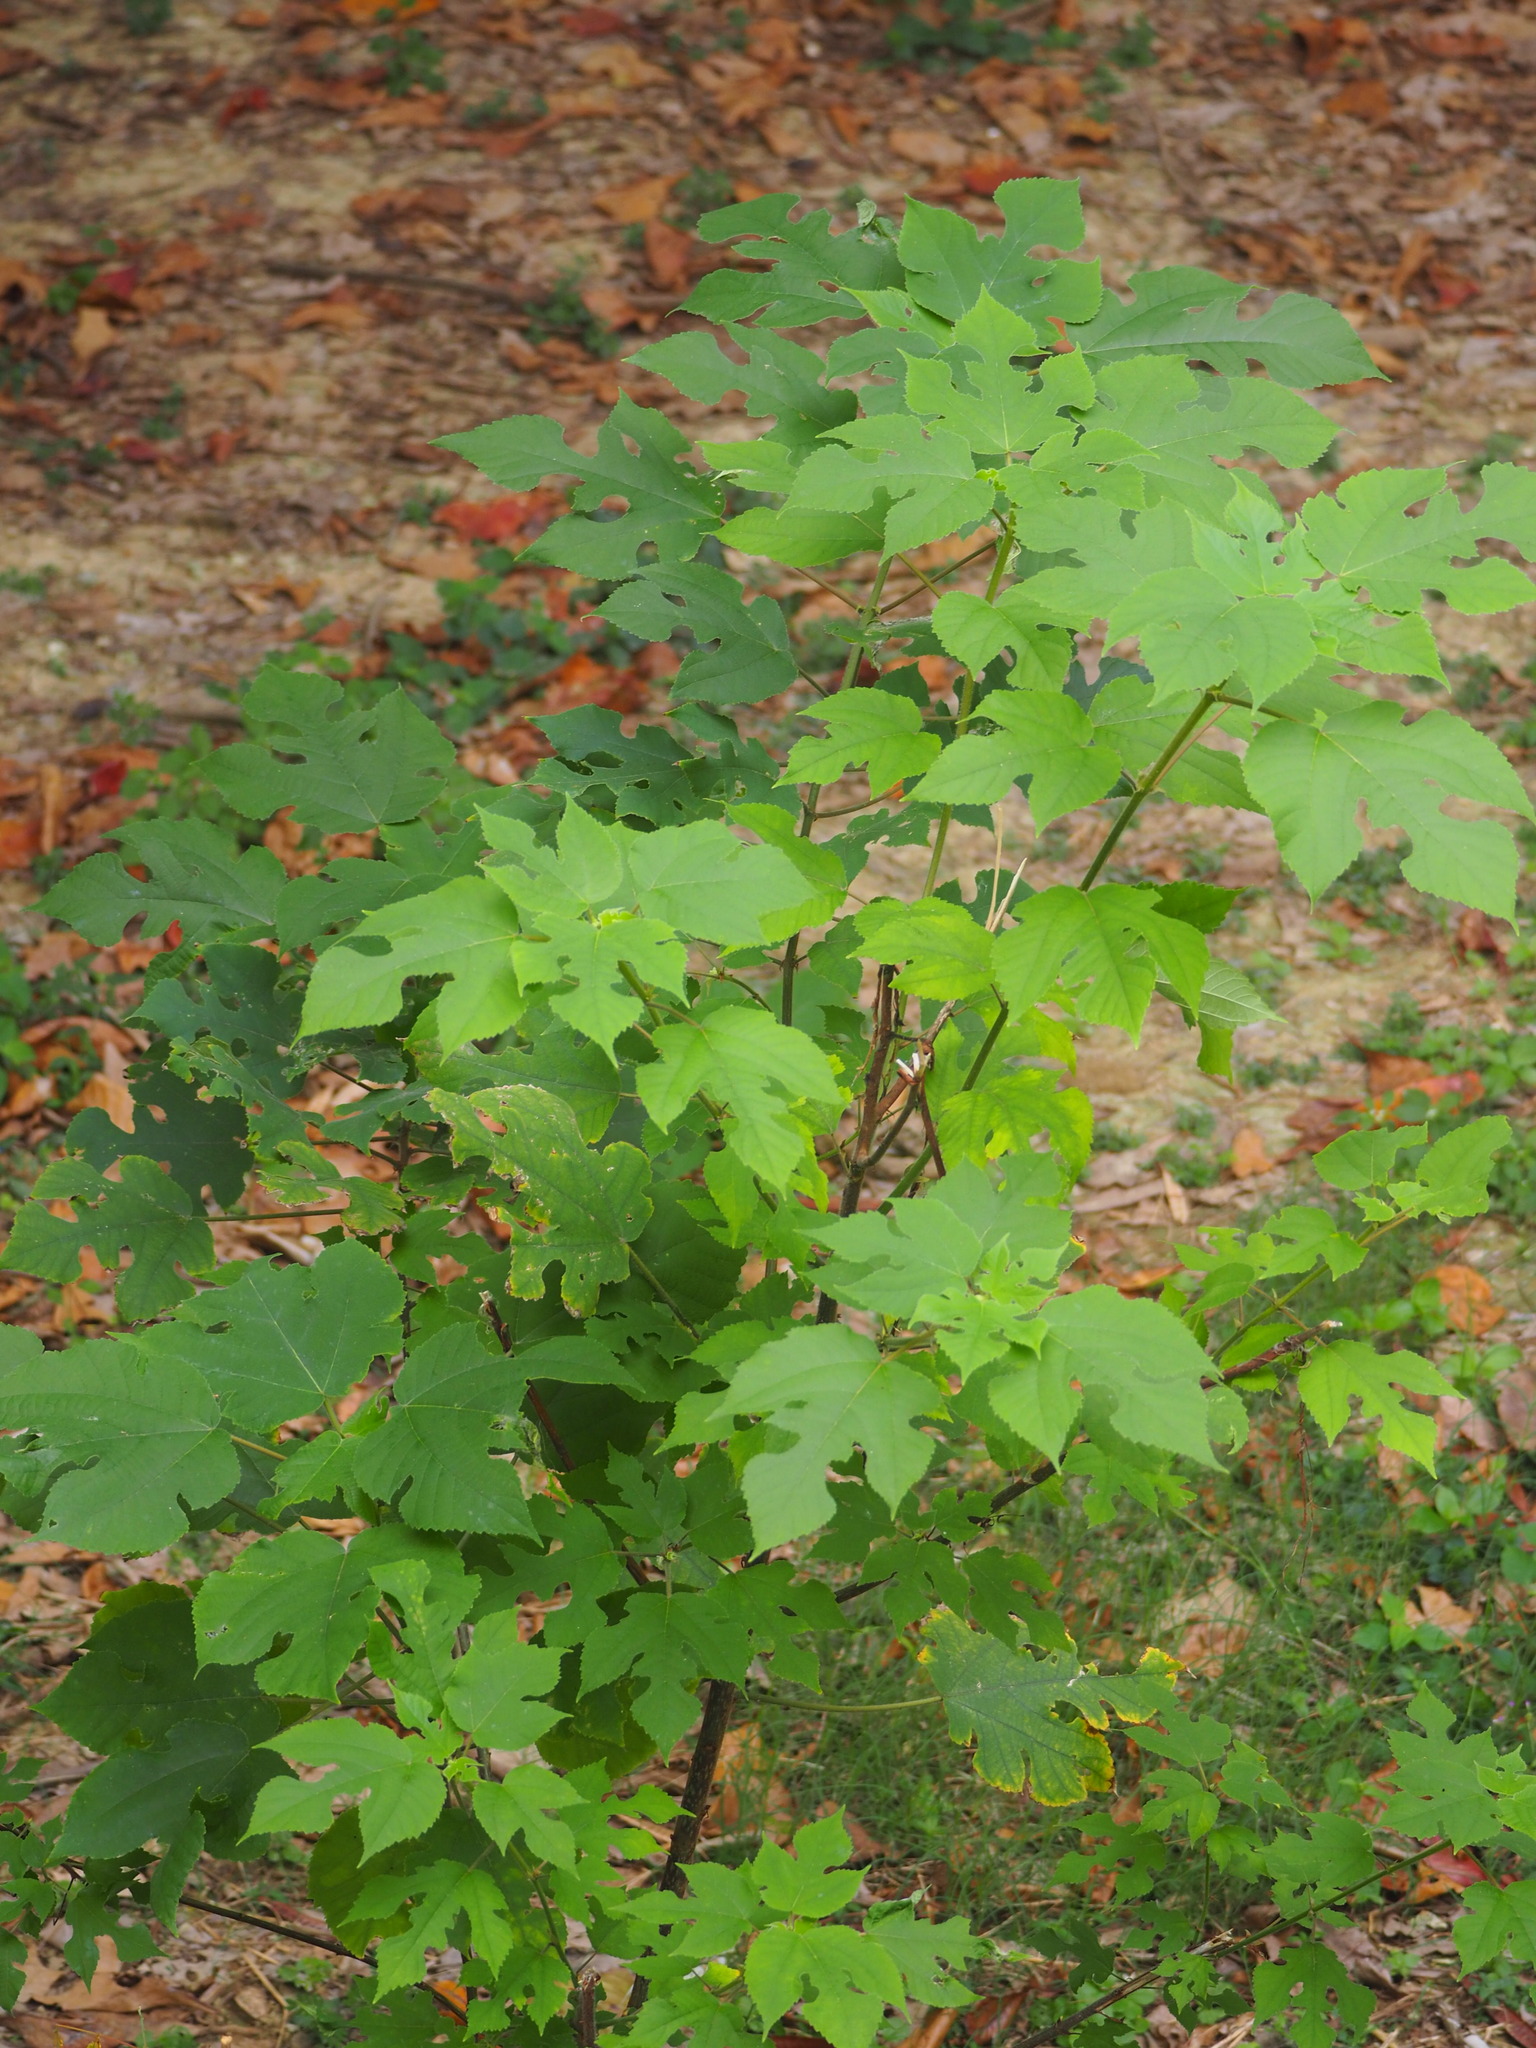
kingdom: Plantae
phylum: Tracheophyta
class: Magnoliopsida
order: Rosales
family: Moraceae
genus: Broussonetia
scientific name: Broussonetia papyrifera
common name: Paper mulberry
